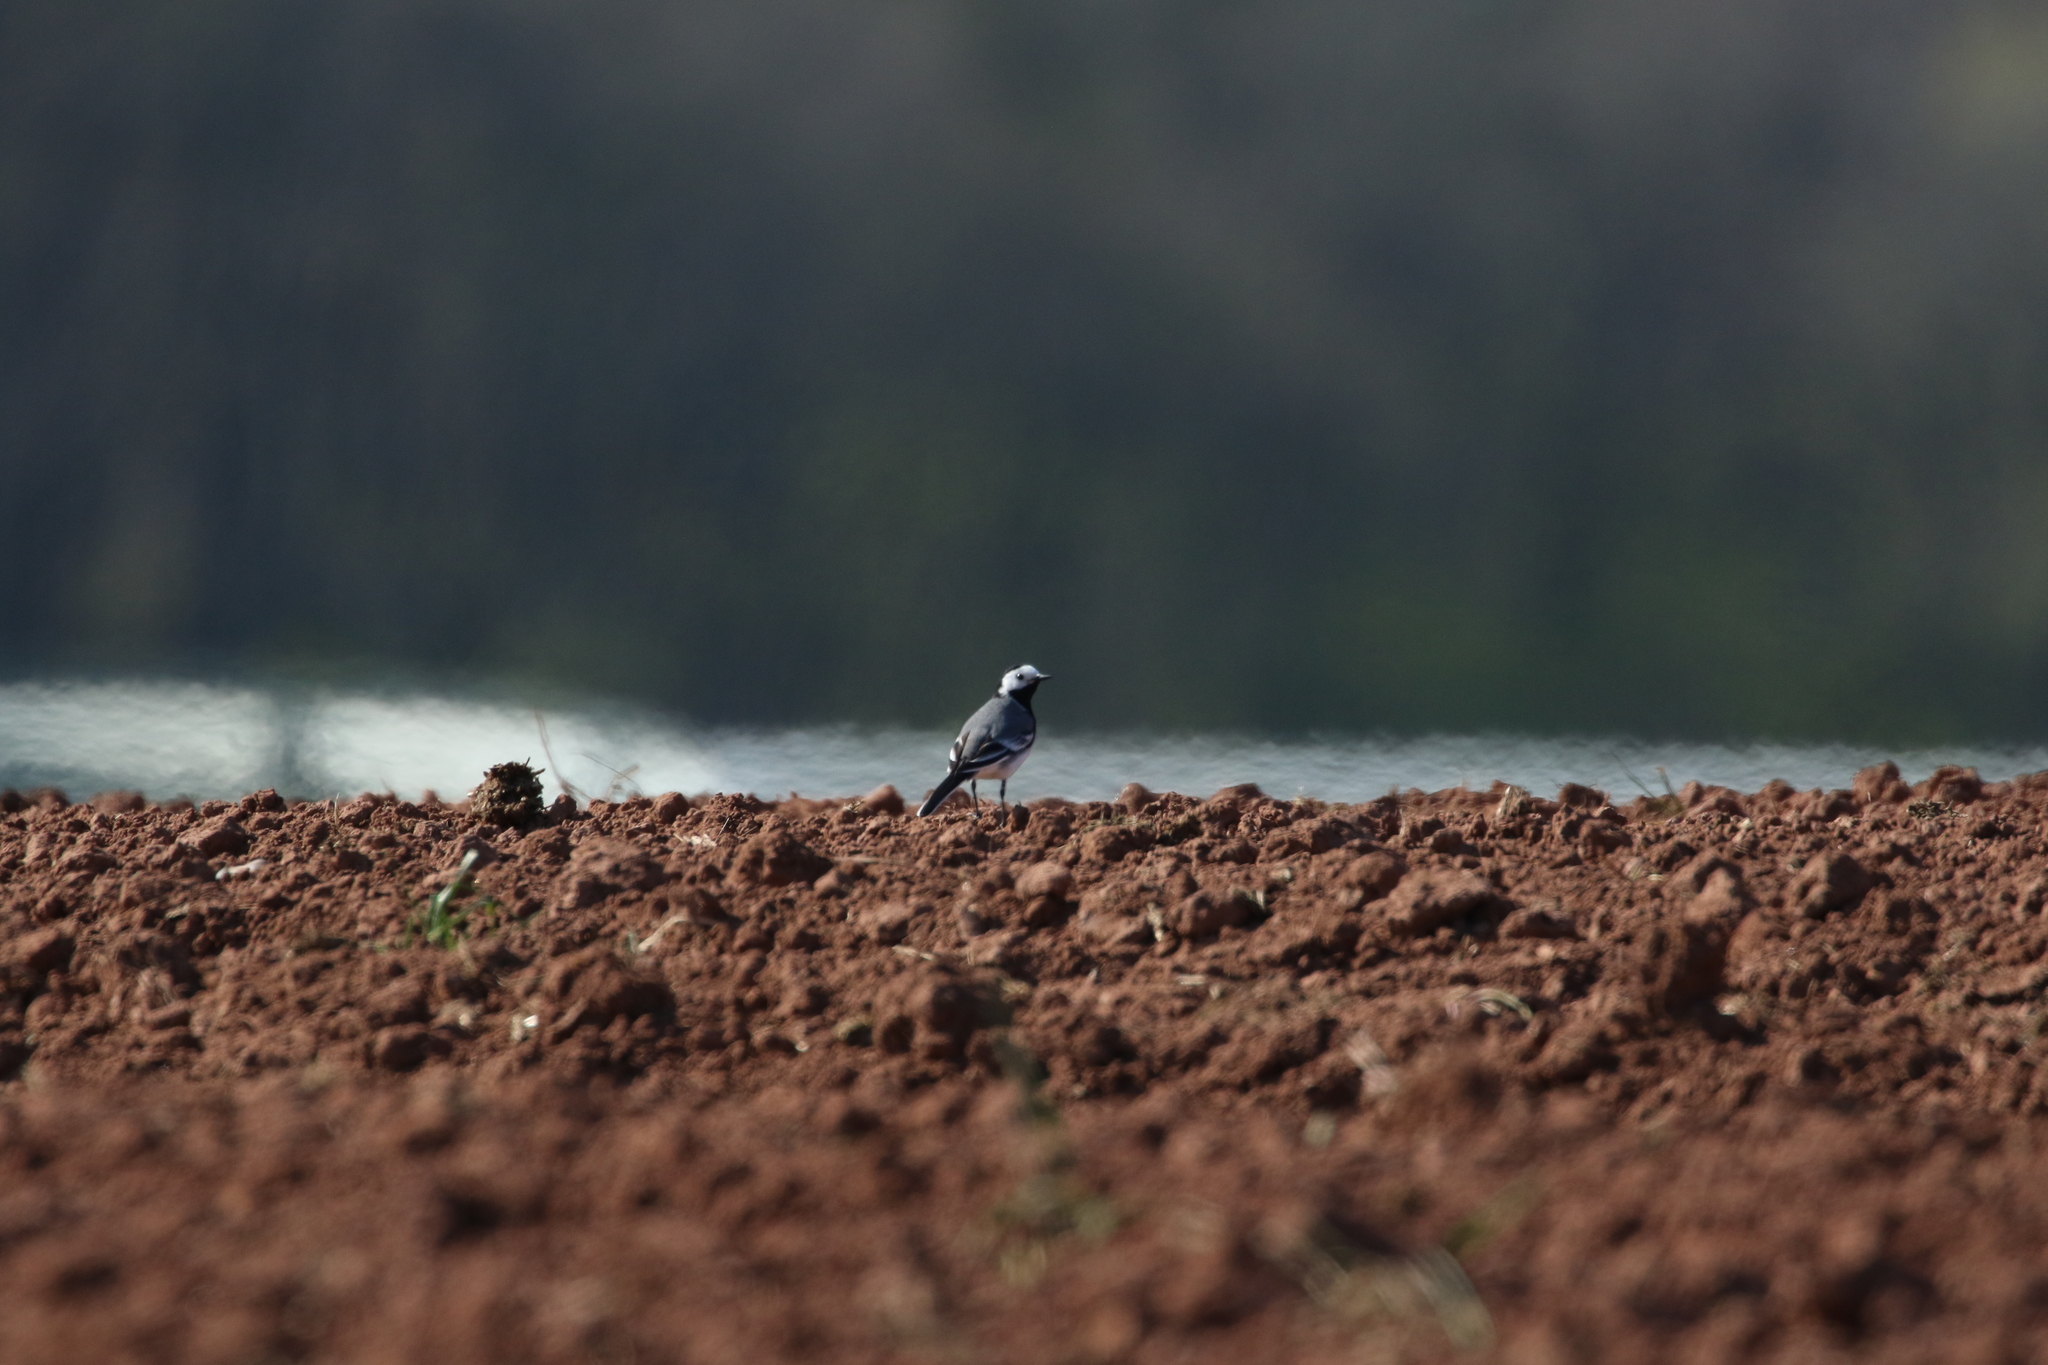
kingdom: Animalia
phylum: Chordata
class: Aves
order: Passeriformes
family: Motacillidae
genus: Motacilla
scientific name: Motacilla alba
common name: White wagtail
